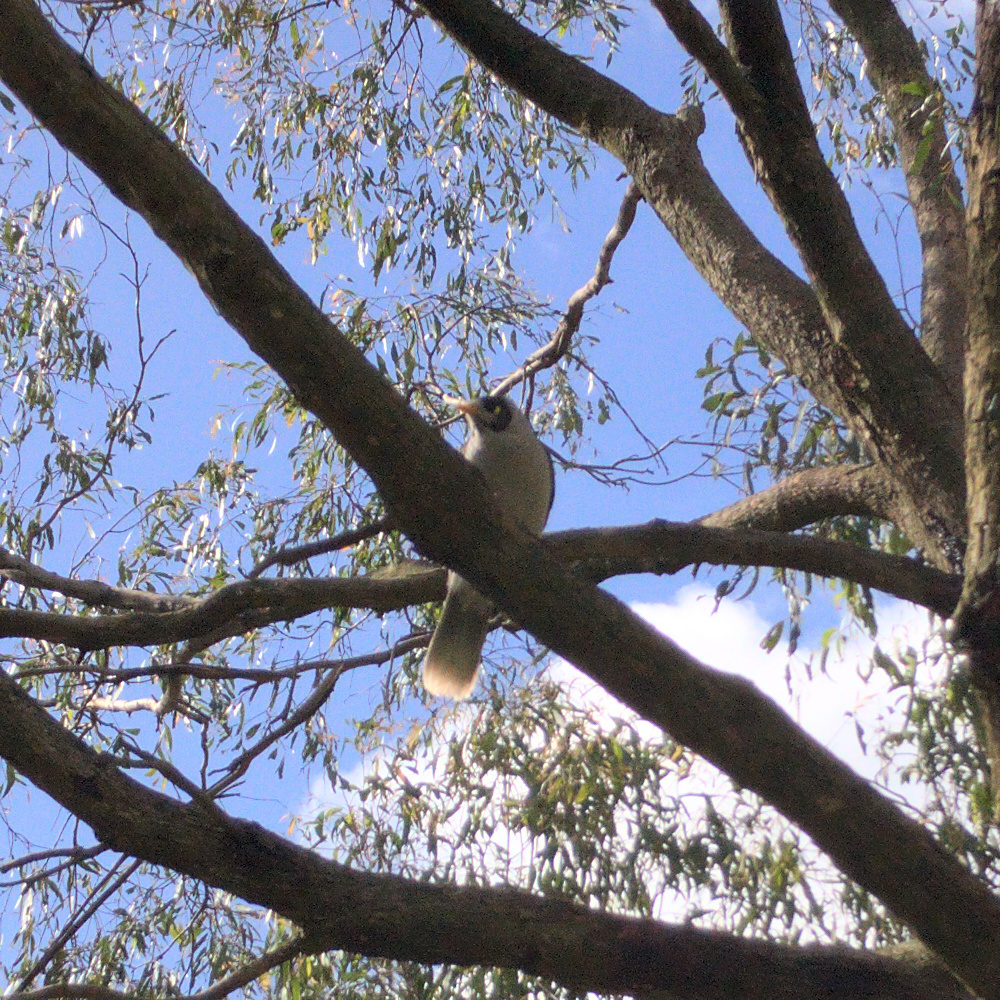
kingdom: Animalia
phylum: Chordata
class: Aves
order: Passeriformes
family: Meliphagidae
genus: Manorina
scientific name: Manorina melanocephala
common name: Noisy miner
